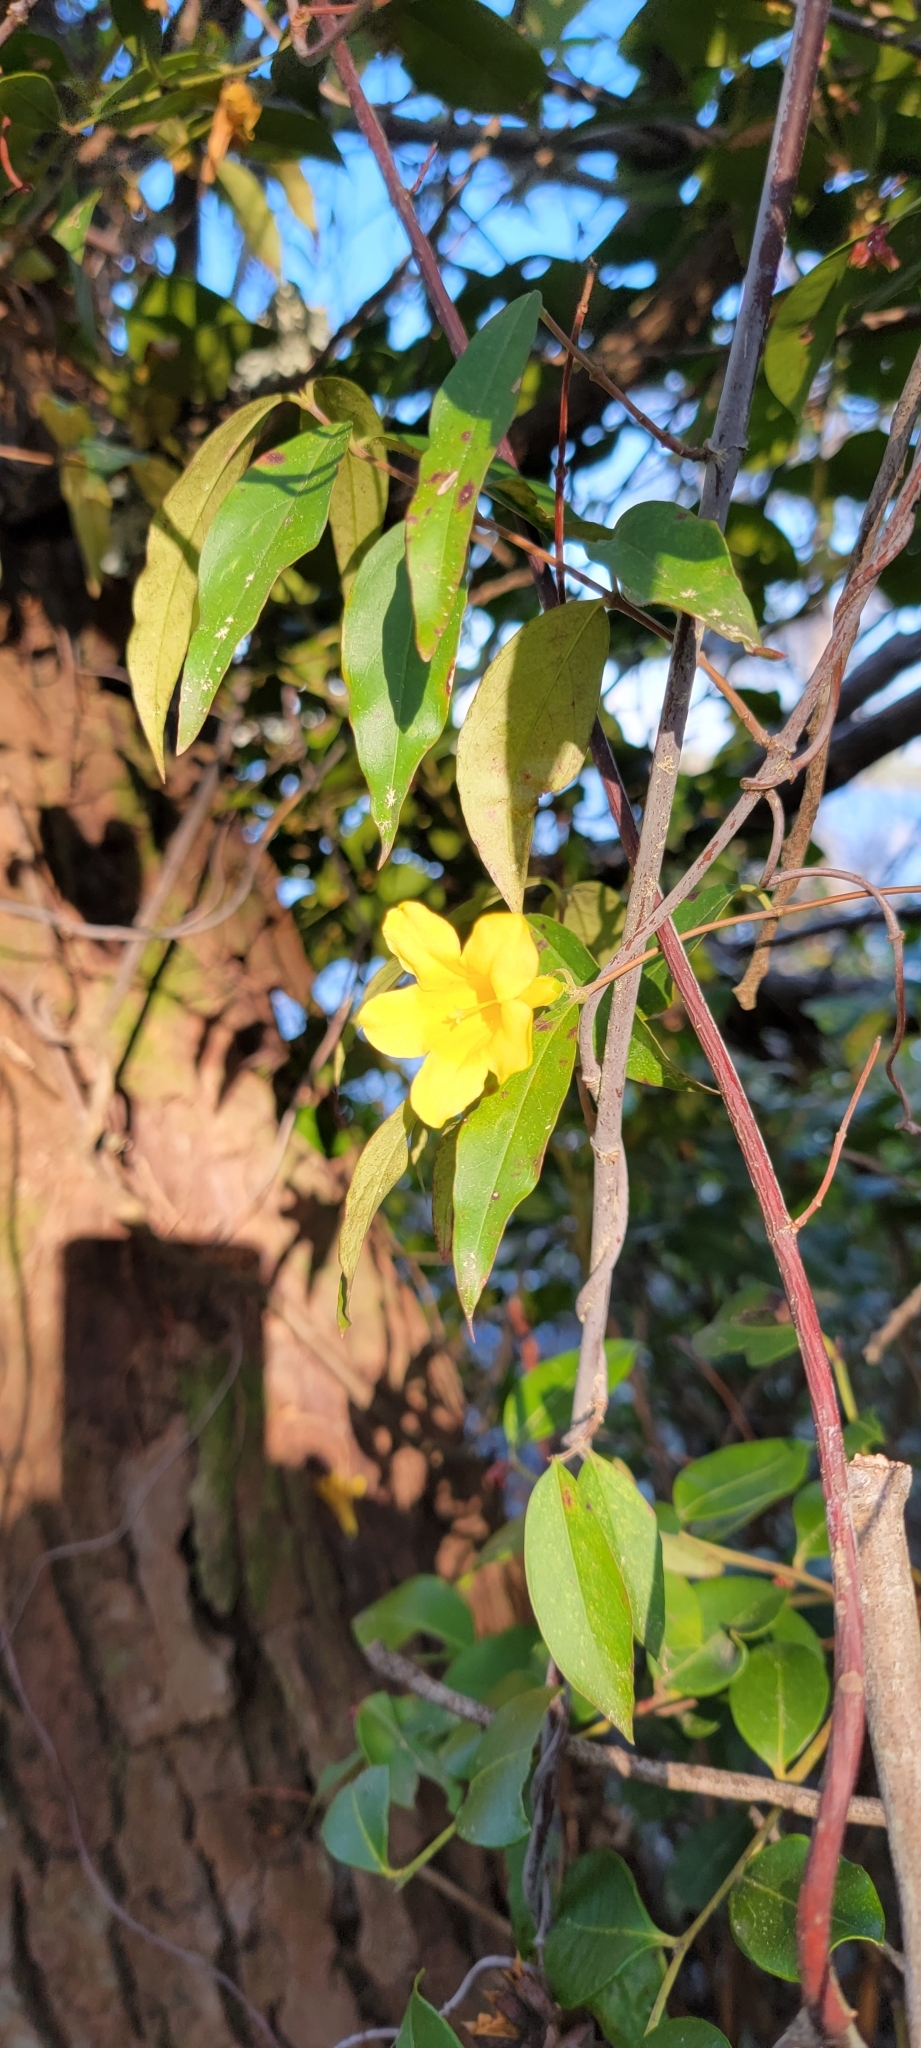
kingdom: Plantae
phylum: Tracheophyta
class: Magnoliopsida
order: Gentianales
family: Gelsemiaceae
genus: Gelsemium
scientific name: Gelsemium sempervirens
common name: Carolina-jasmine
